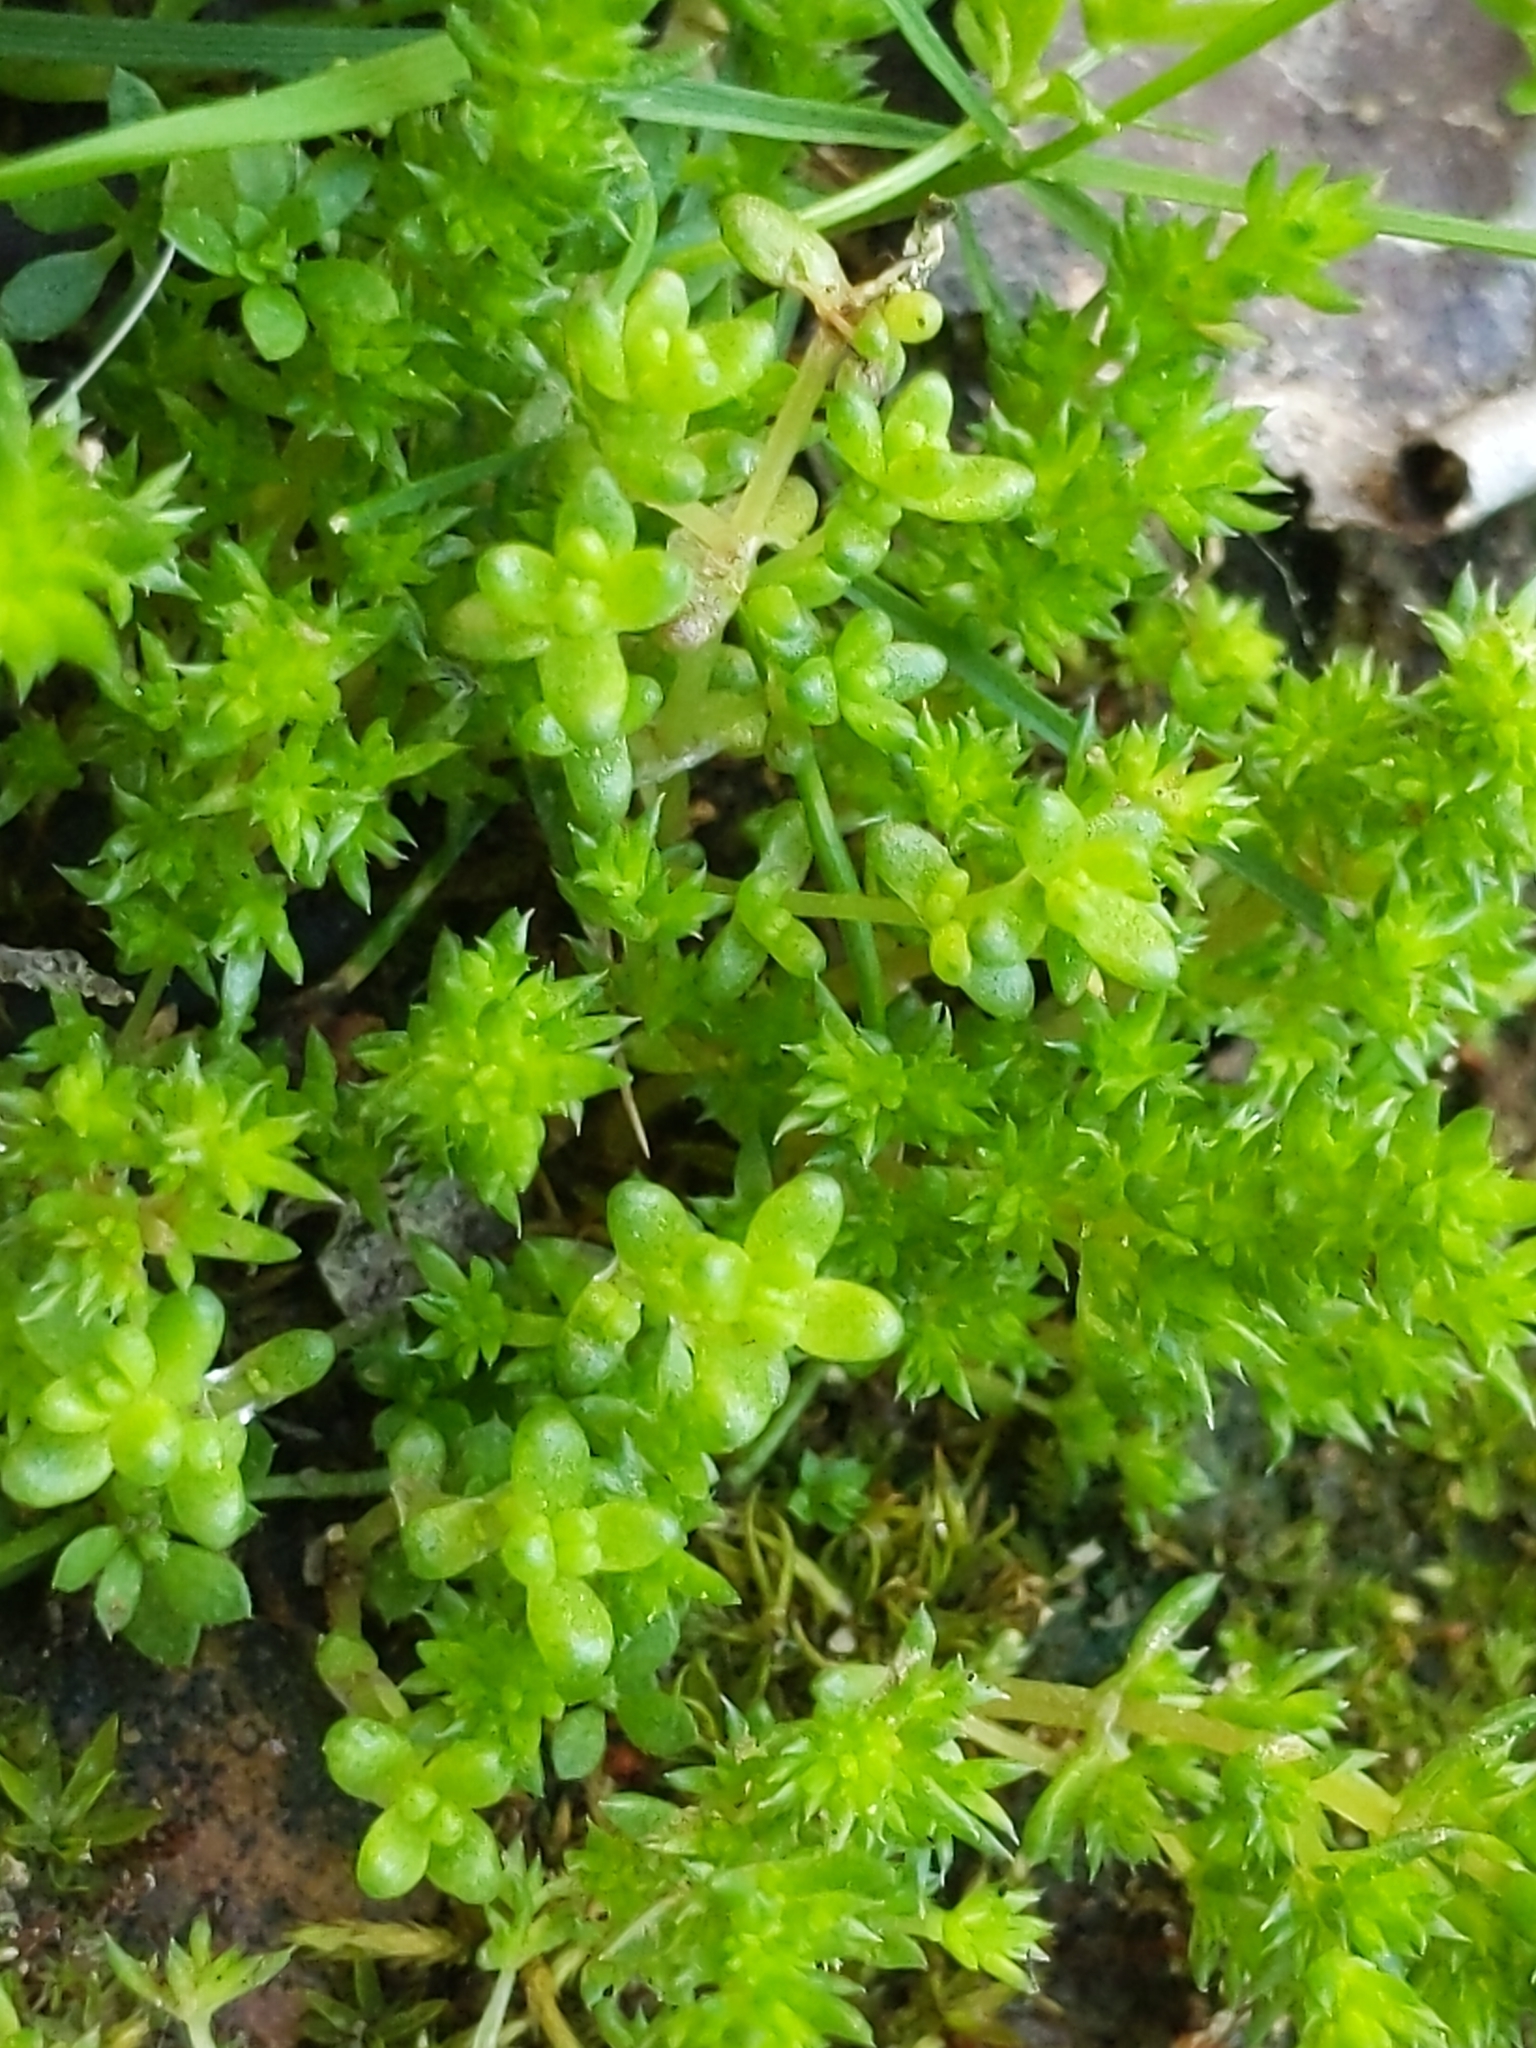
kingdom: Plantae
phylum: Tracheophyta
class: Magnoliopsida
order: Saxifragales
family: Crassulaceae
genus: Crassula
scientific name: Crassula connata
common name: Erect pygmyweed
